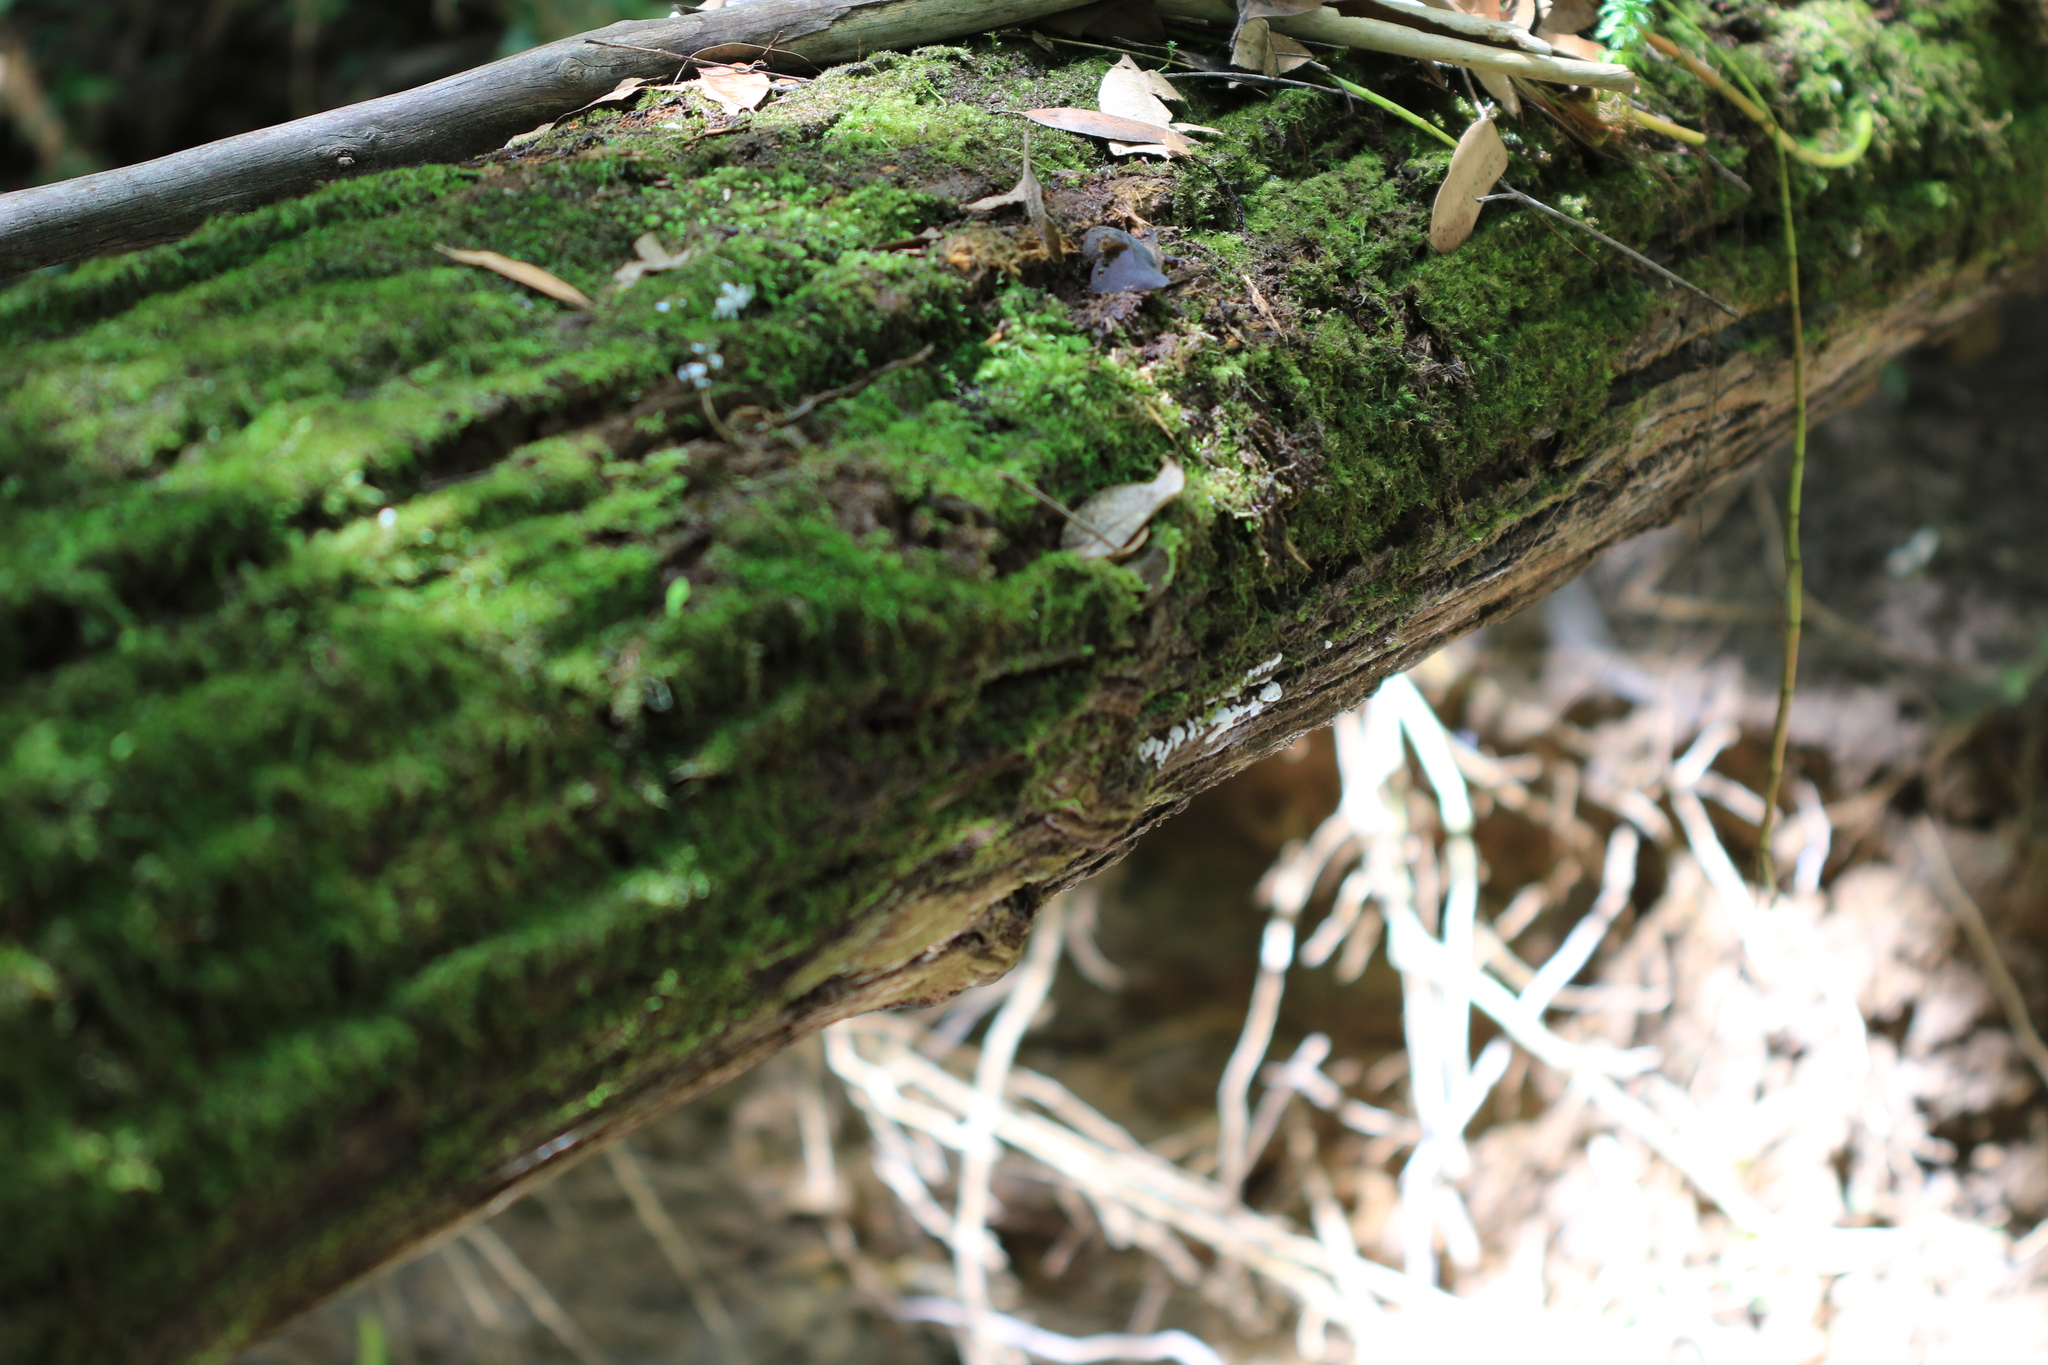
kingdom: Protozoa
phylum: Mycetozoa
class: Protosteliomycetes
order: Ceratiomyxales
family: Ceratiomyxaceae
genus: Ceratiomyxa
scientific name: Ceratiomyxa fruticulosa
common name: Honeycomb coral slime mold
